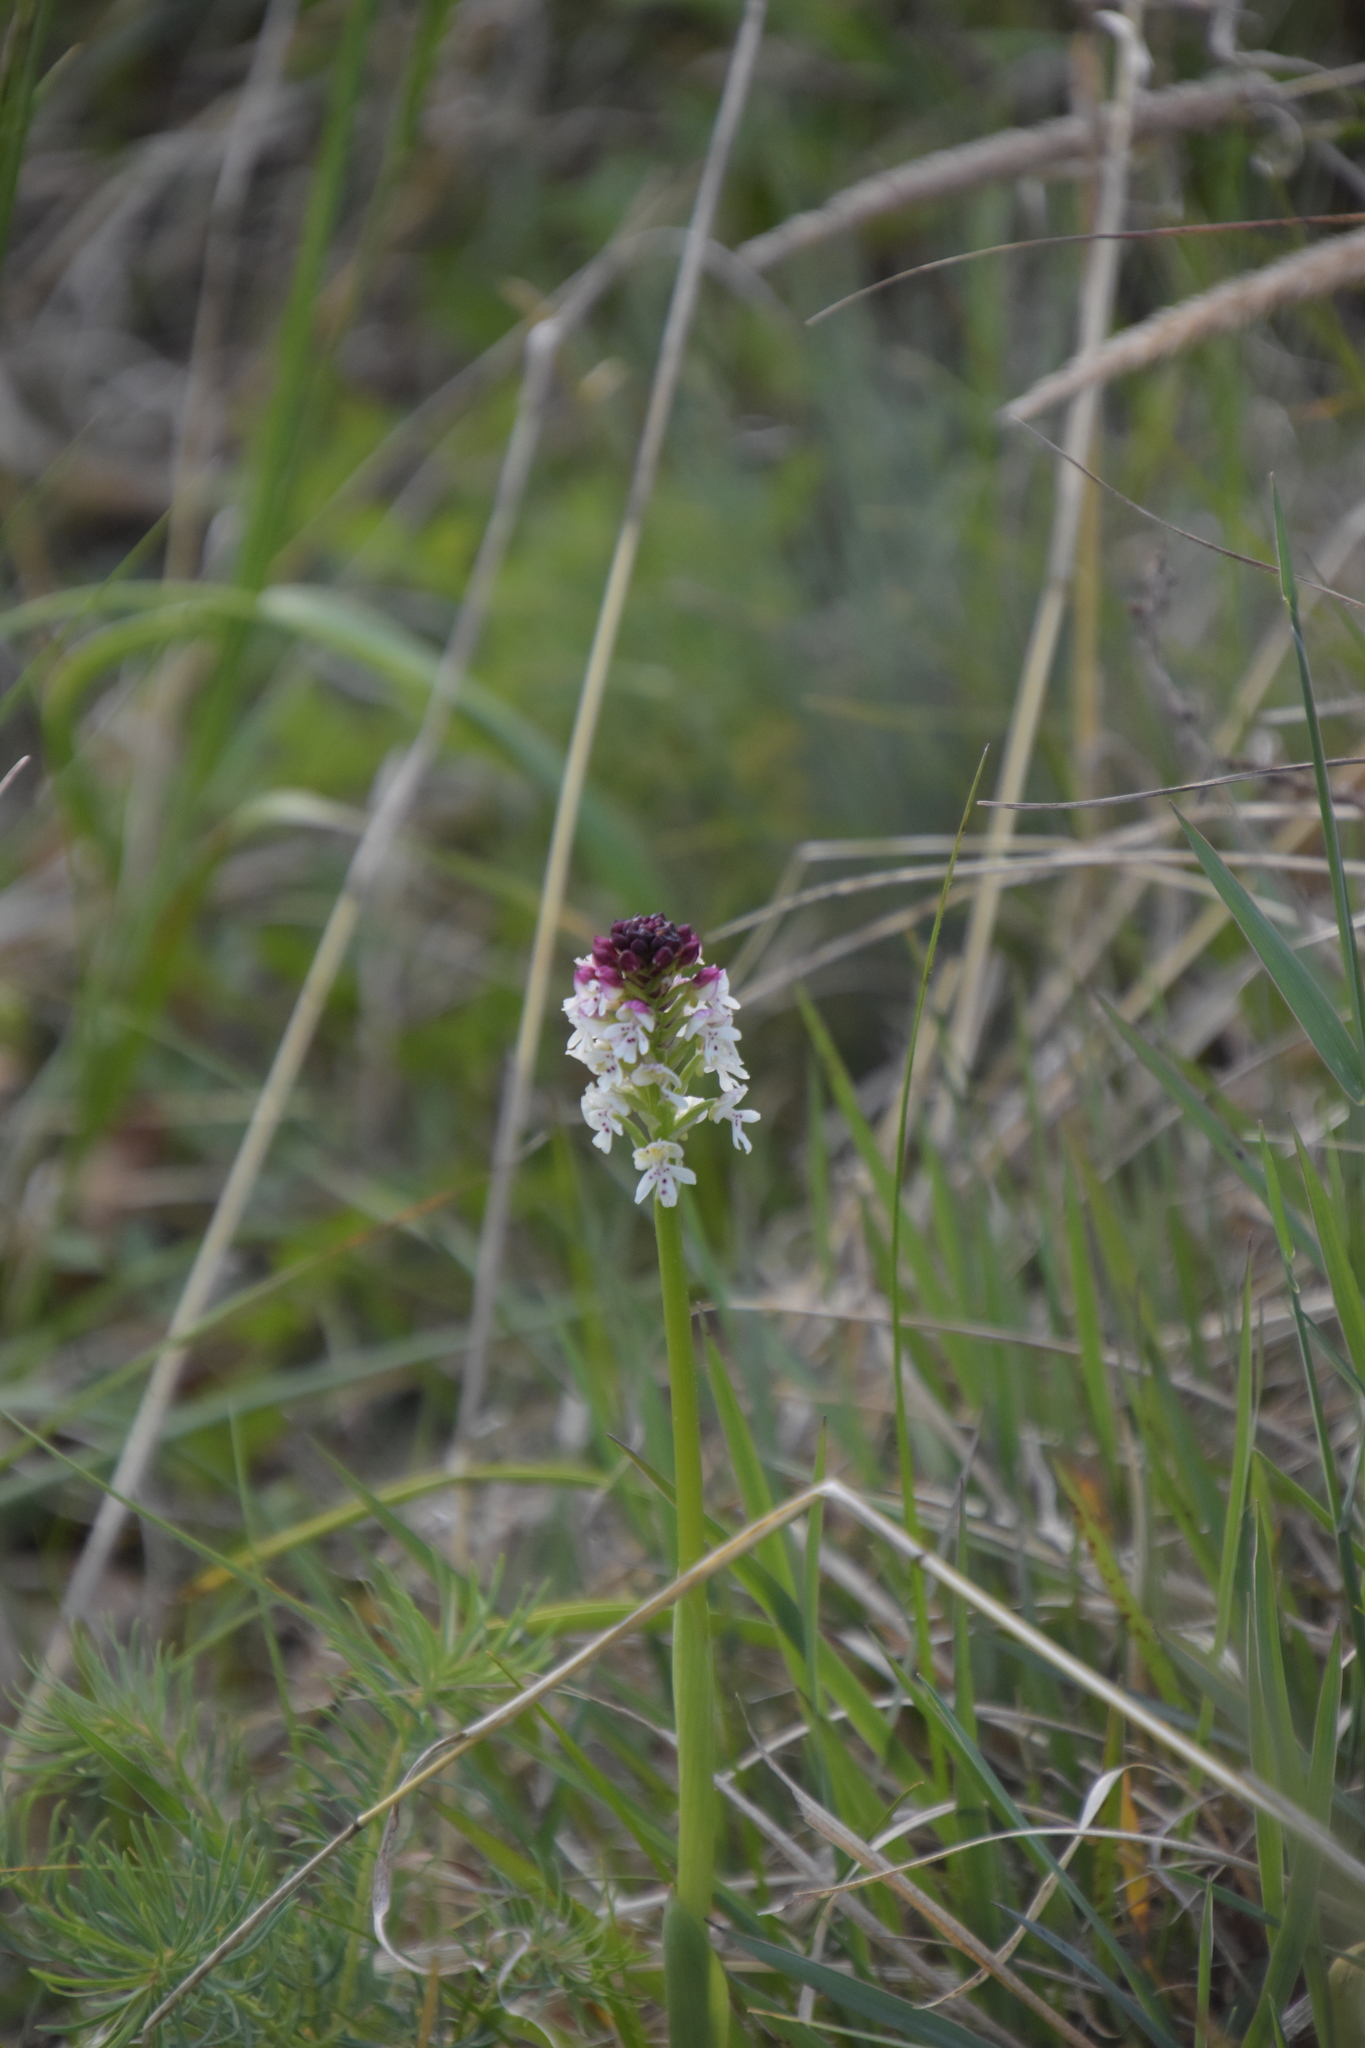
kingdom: Plantae
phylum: Tracheophyta
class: Liliopsida
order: Asparagales
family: Orchidaceae
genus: Neotinea
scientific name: Neotinea ustulata
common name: Burnt orchid
